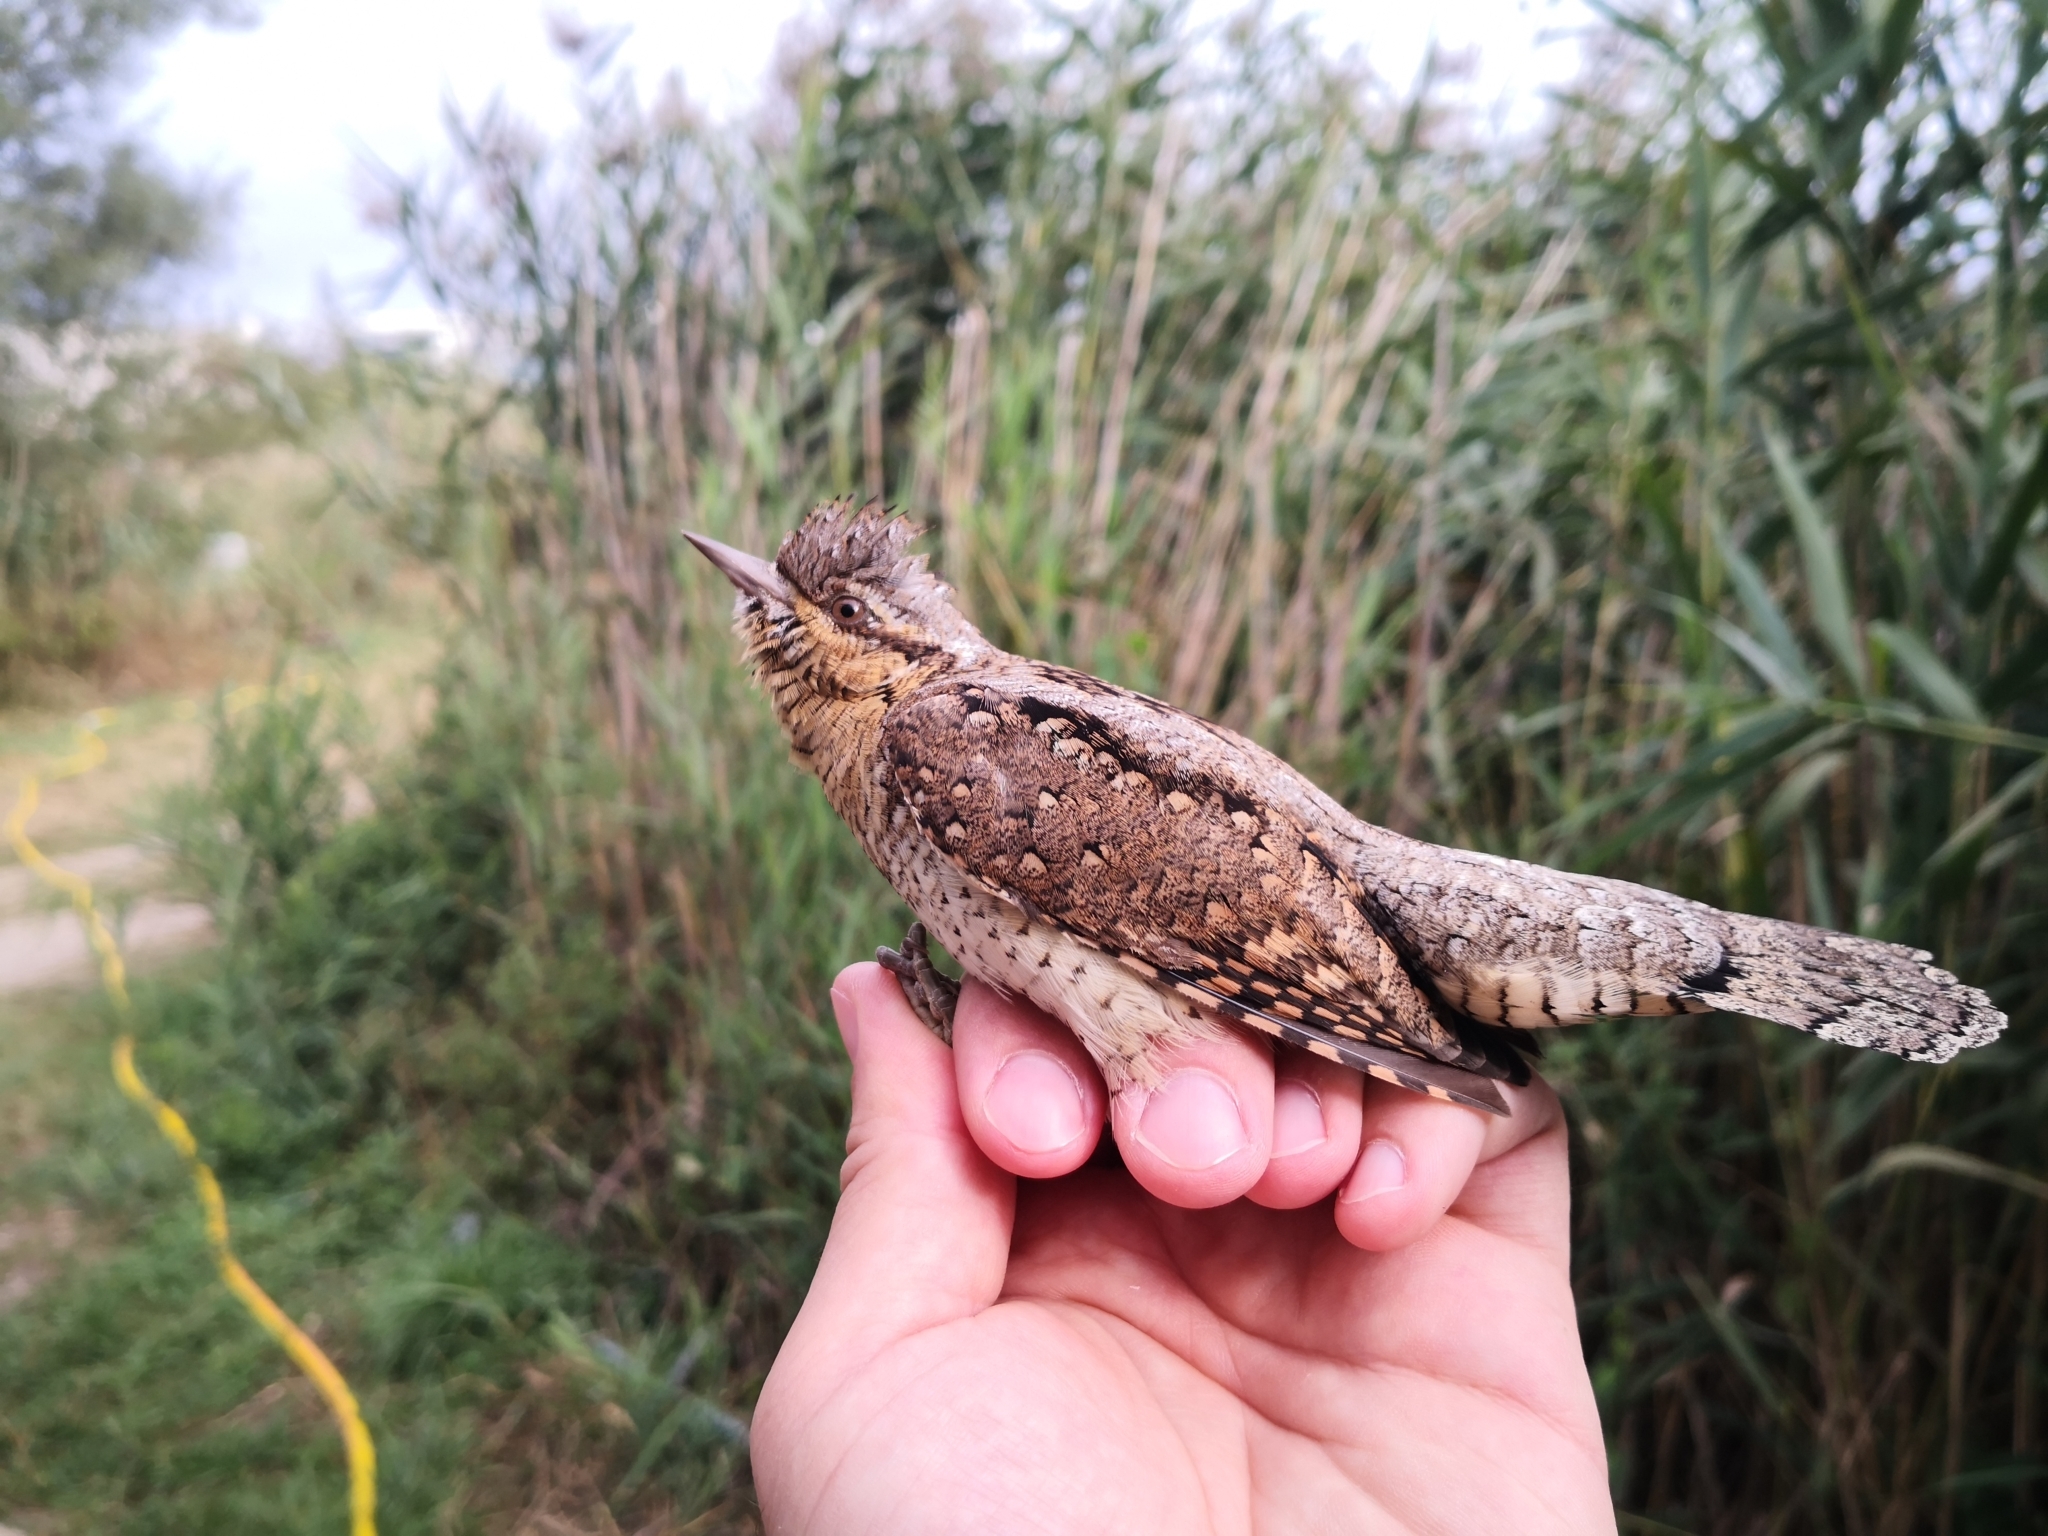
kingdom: Animalia
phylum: Chordata
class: Aves
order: Piciformes
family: Picidae
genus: Jynx
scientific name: Jynx torquilla
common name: Eurasian wryneck
